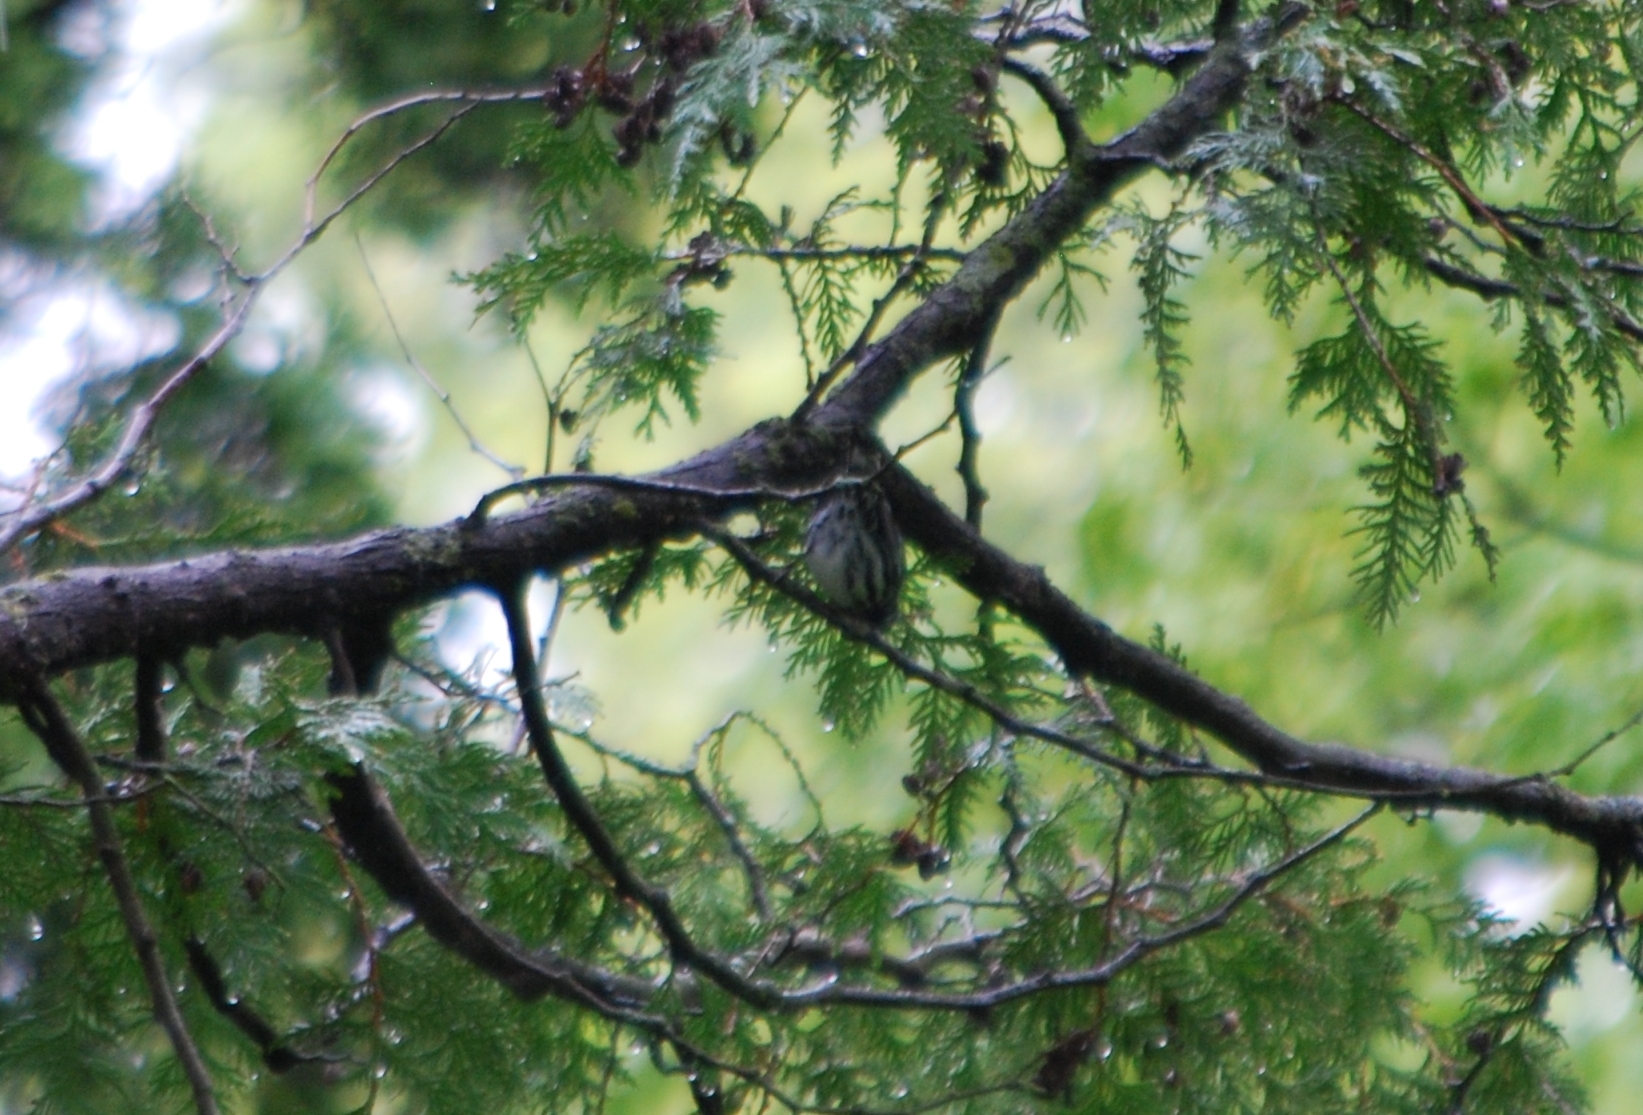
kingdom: Animalia
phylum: Chordata
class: Aves
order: Passeriformes
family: Parulidae
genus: Mniotilta
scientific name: Mniotilta varia
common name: Black-and-white warbler
